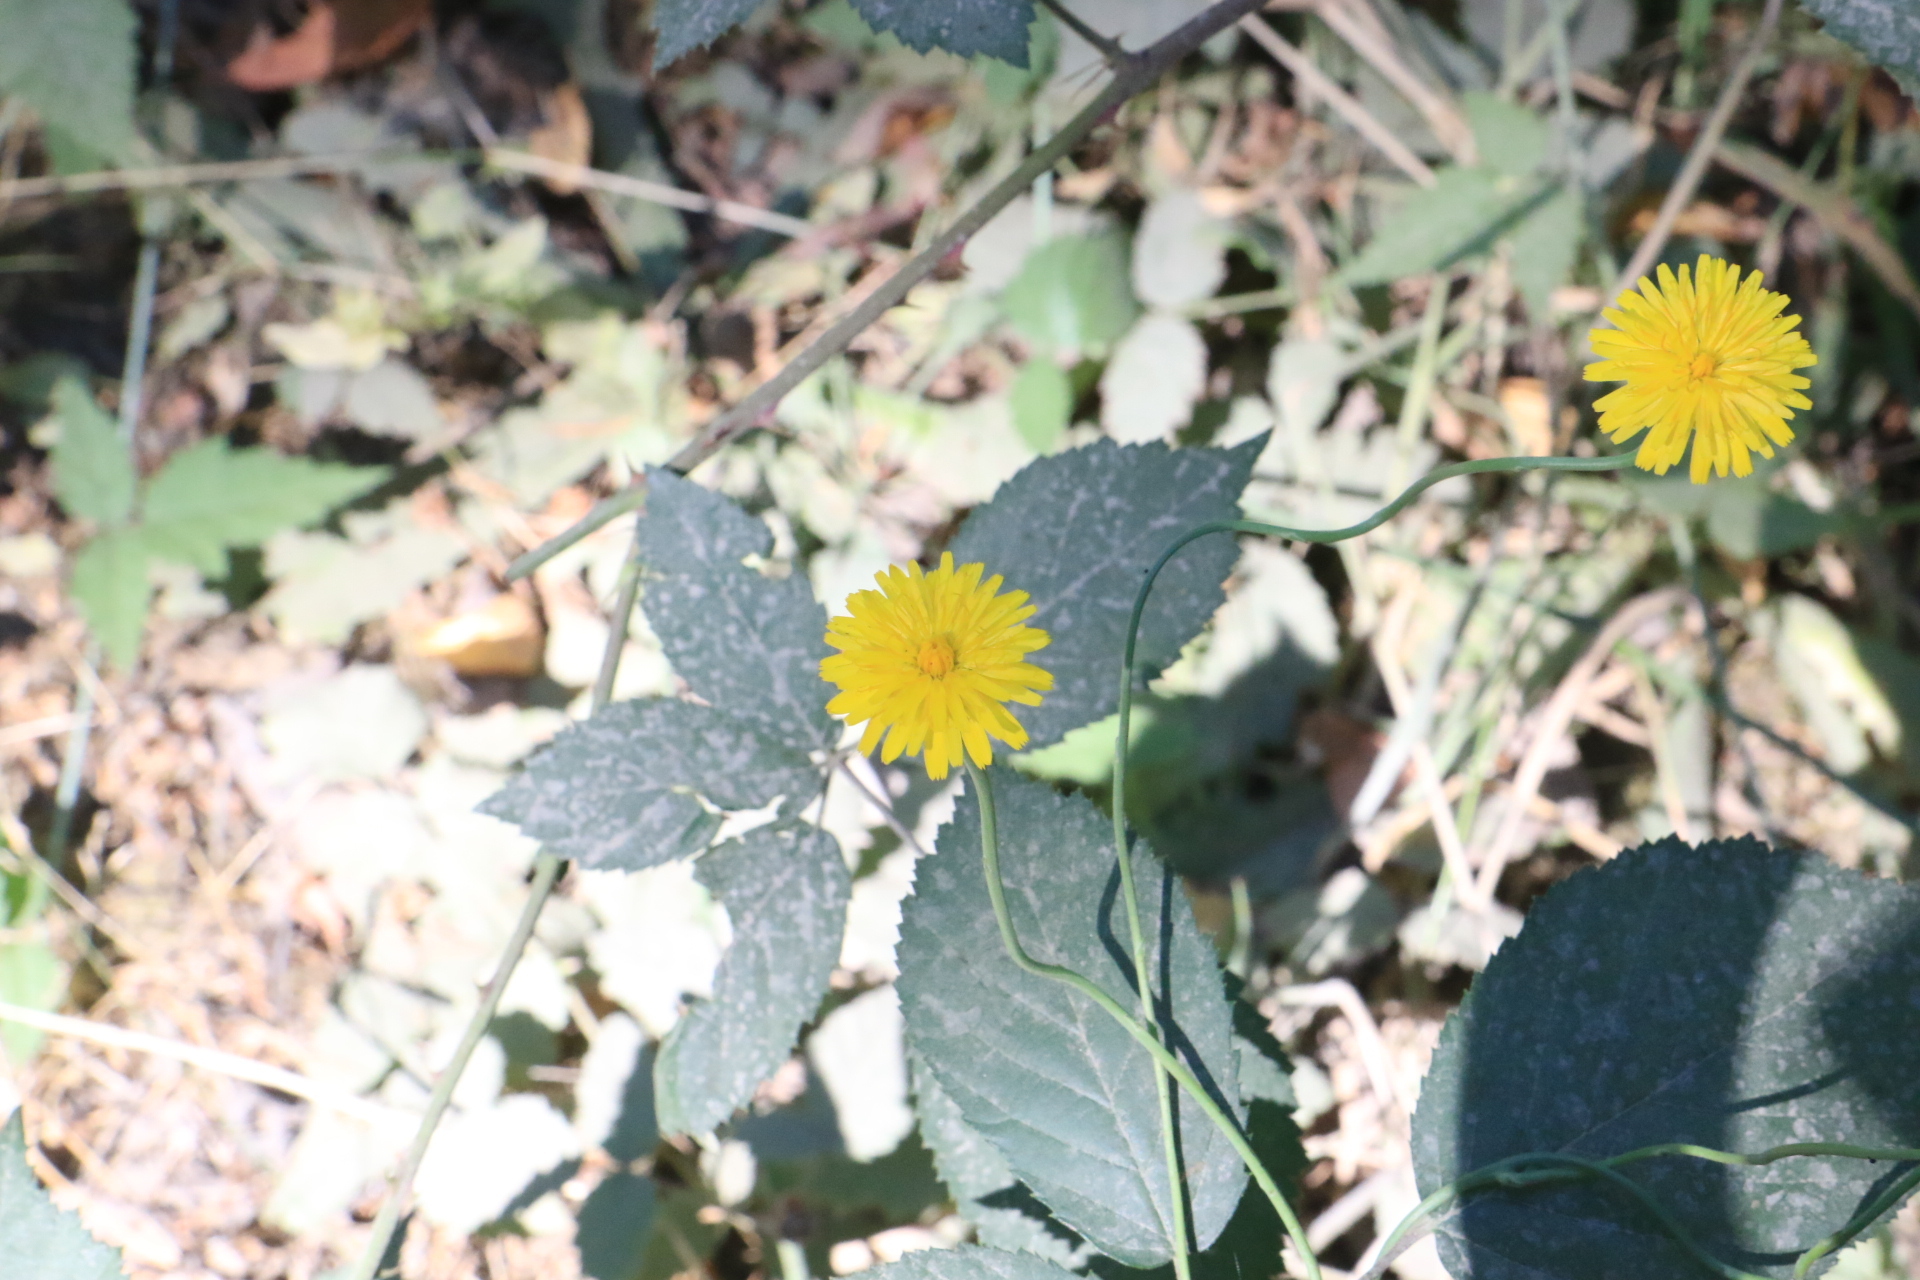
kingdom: Plantae
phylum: Tracheophyta
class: Magnoliopsida
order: Asterales
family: Asteraceae
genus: Hypochaeris
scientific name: Hypochaeris radicata
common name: Flatweed
